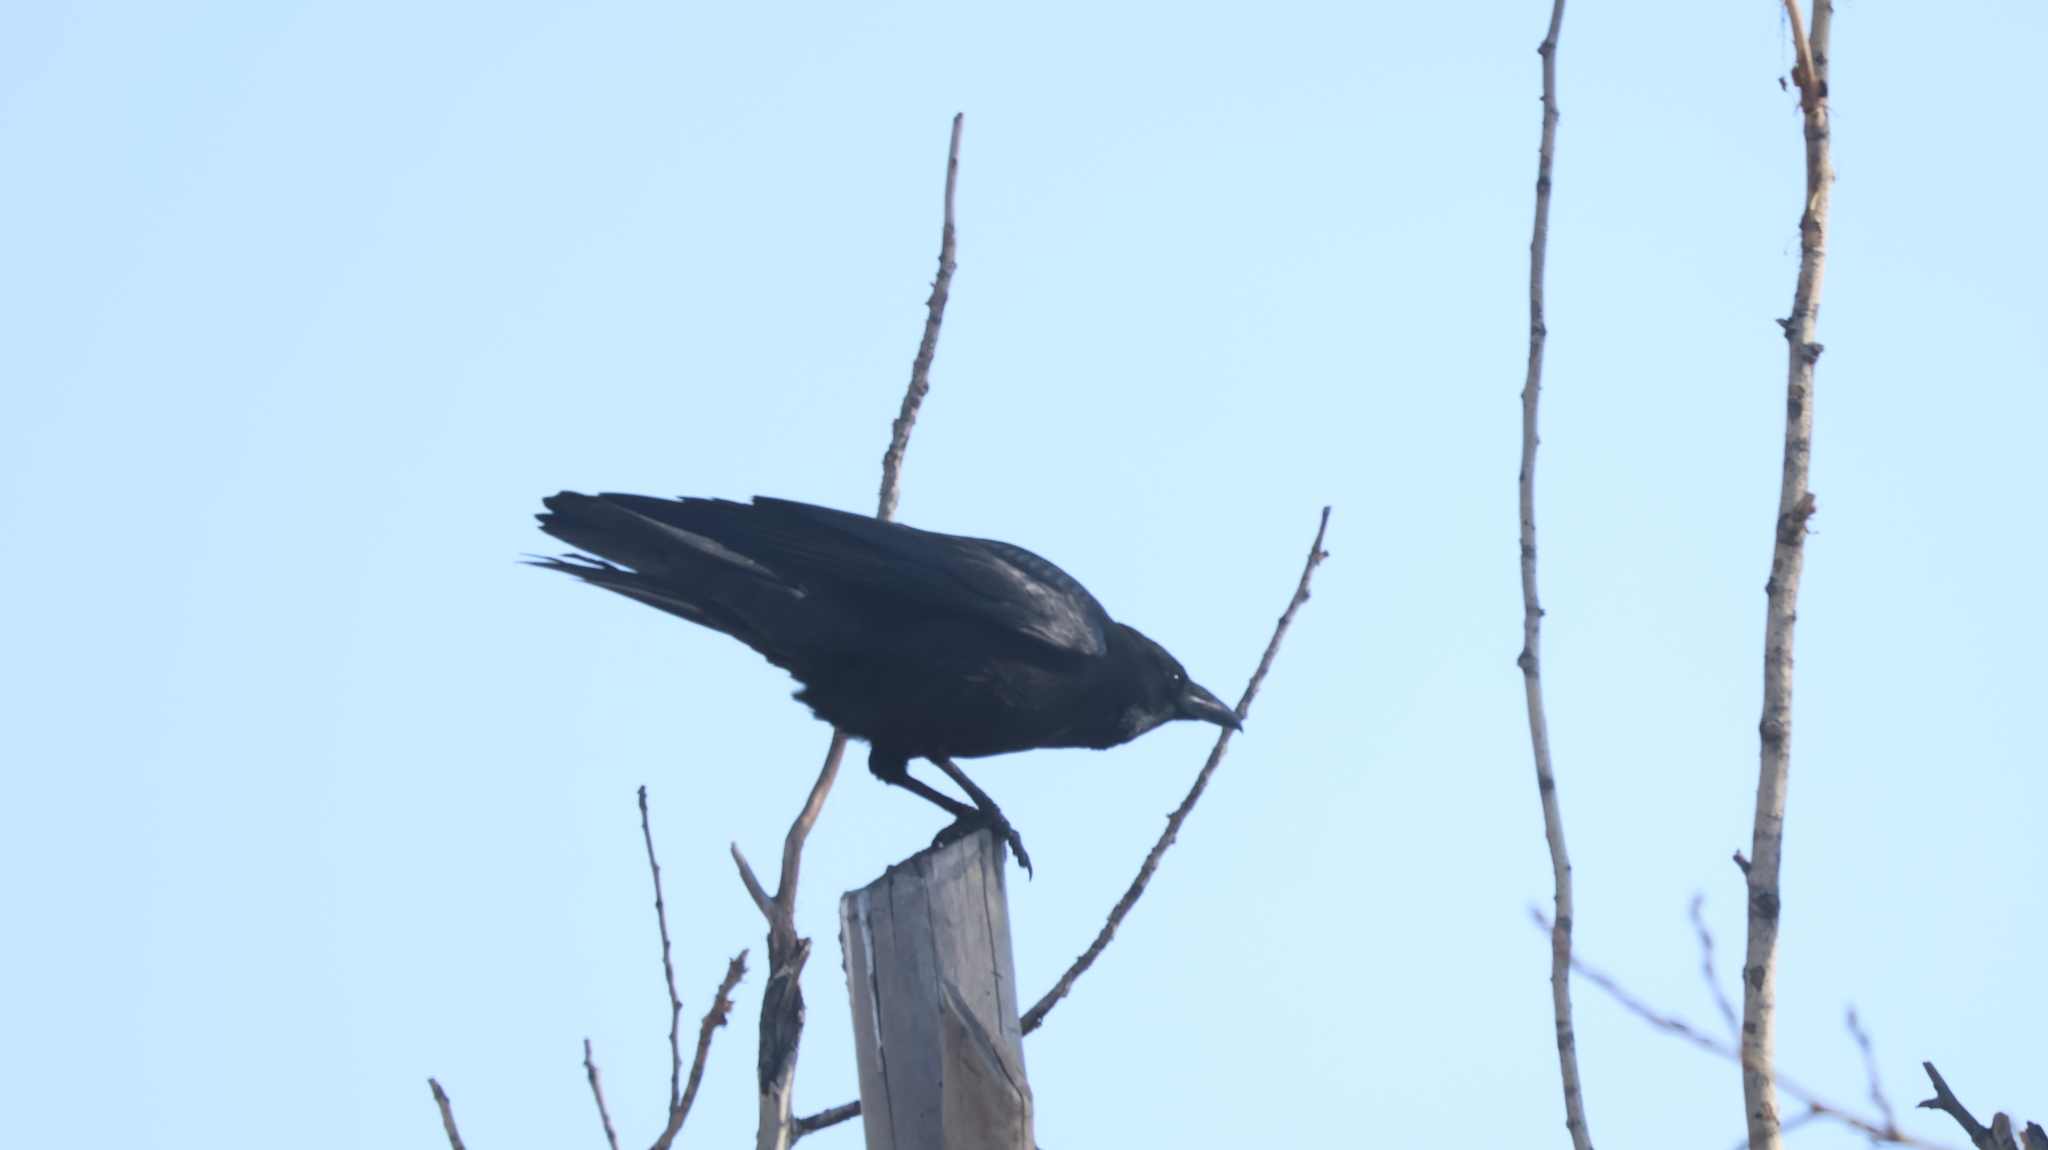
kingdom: Animalia
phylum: Chordata
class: Aves
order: Passeriformes
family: Corvidae
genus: Corvus
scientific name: Corvus corone
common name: Carrion crow
